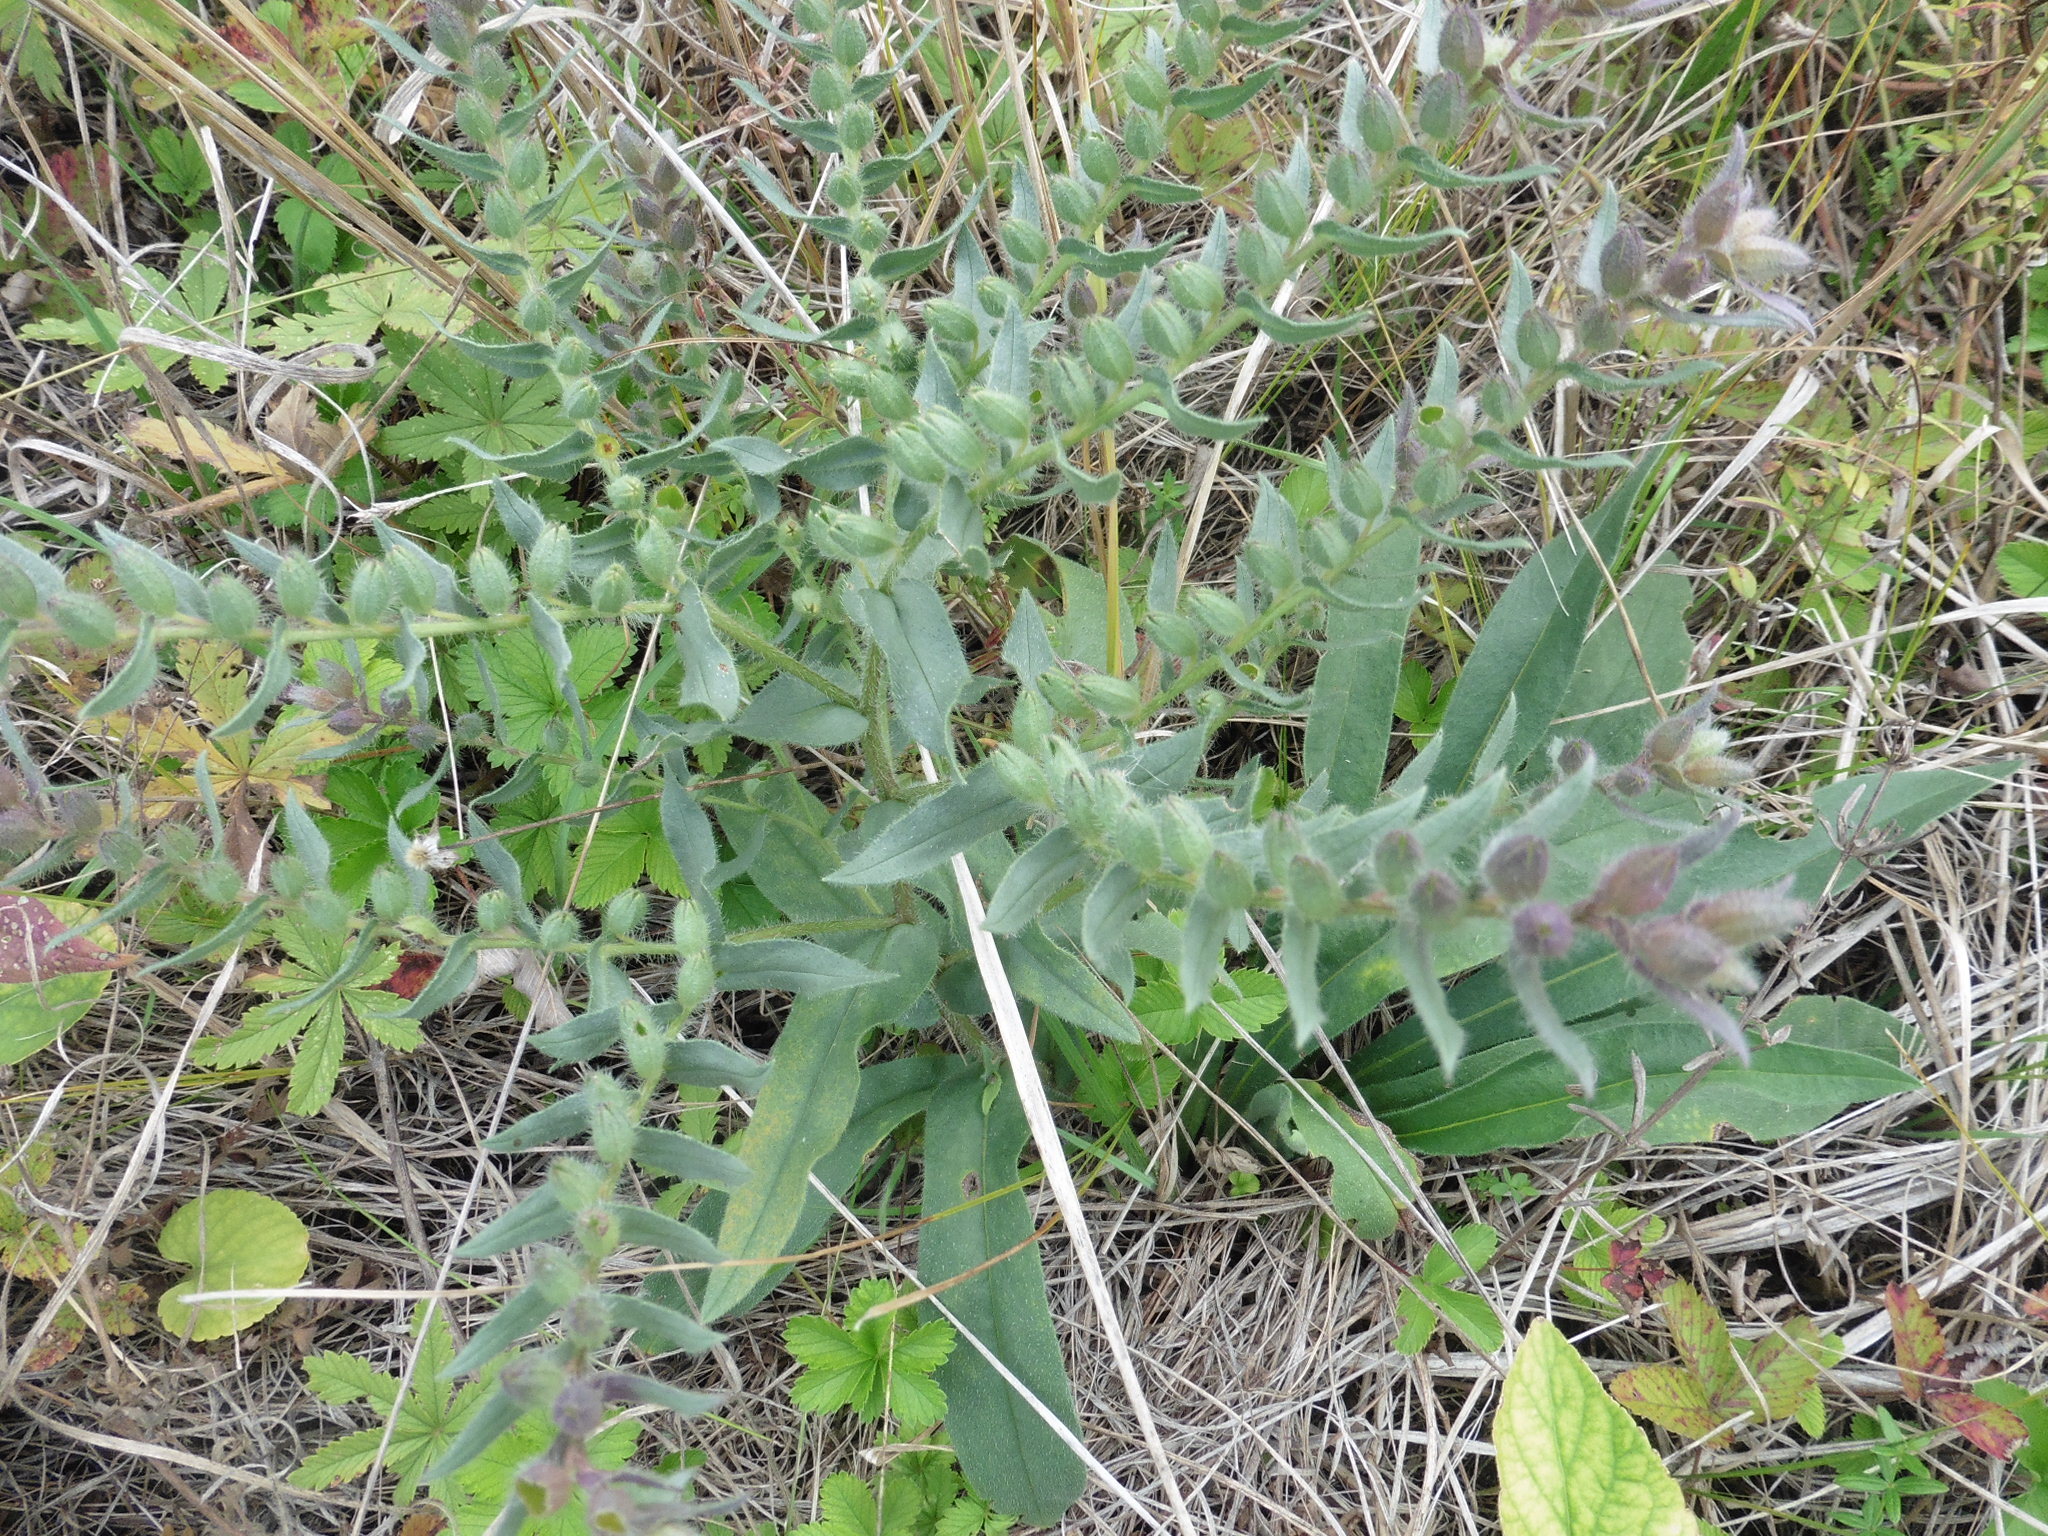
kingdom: Plantae
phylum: Tracheophyta
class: Magnoliopsida
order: Boraginales
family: Boraginaceae
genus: Nonea
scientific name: Nonea pulla
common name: Brown nonea
